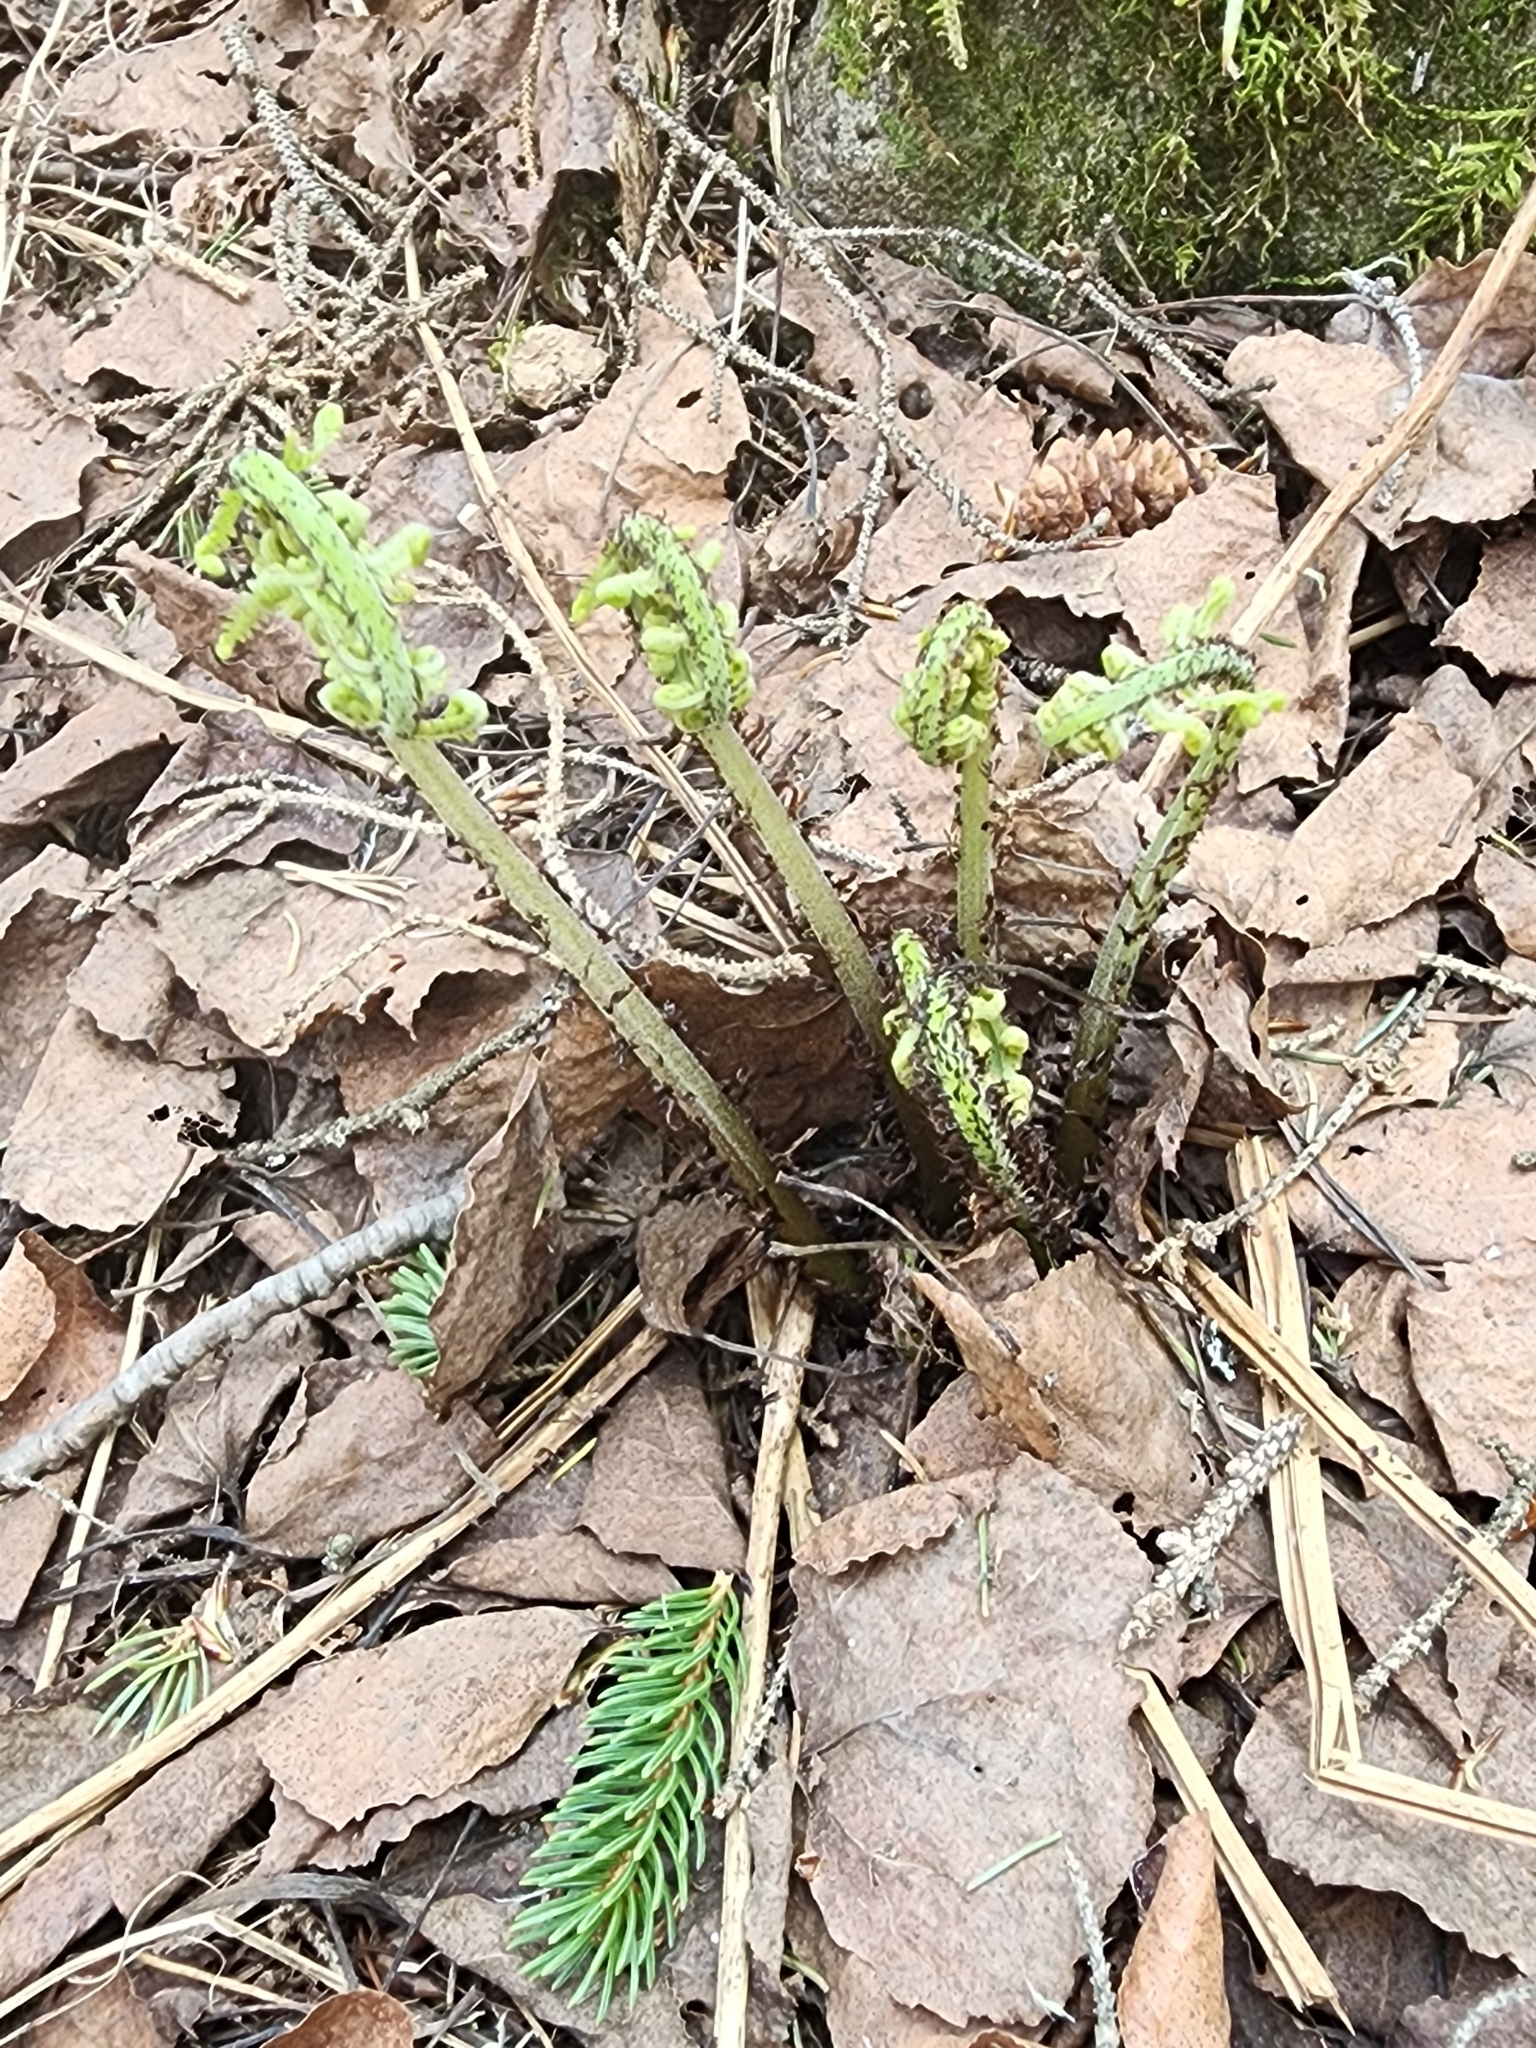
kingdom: Plantae
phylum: Tracheophyta
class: Polypodiopsida
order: Polypodiales
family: Athyriaceae
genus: Athyrium
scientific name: Athyrium angustum
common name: Northern lady fern
